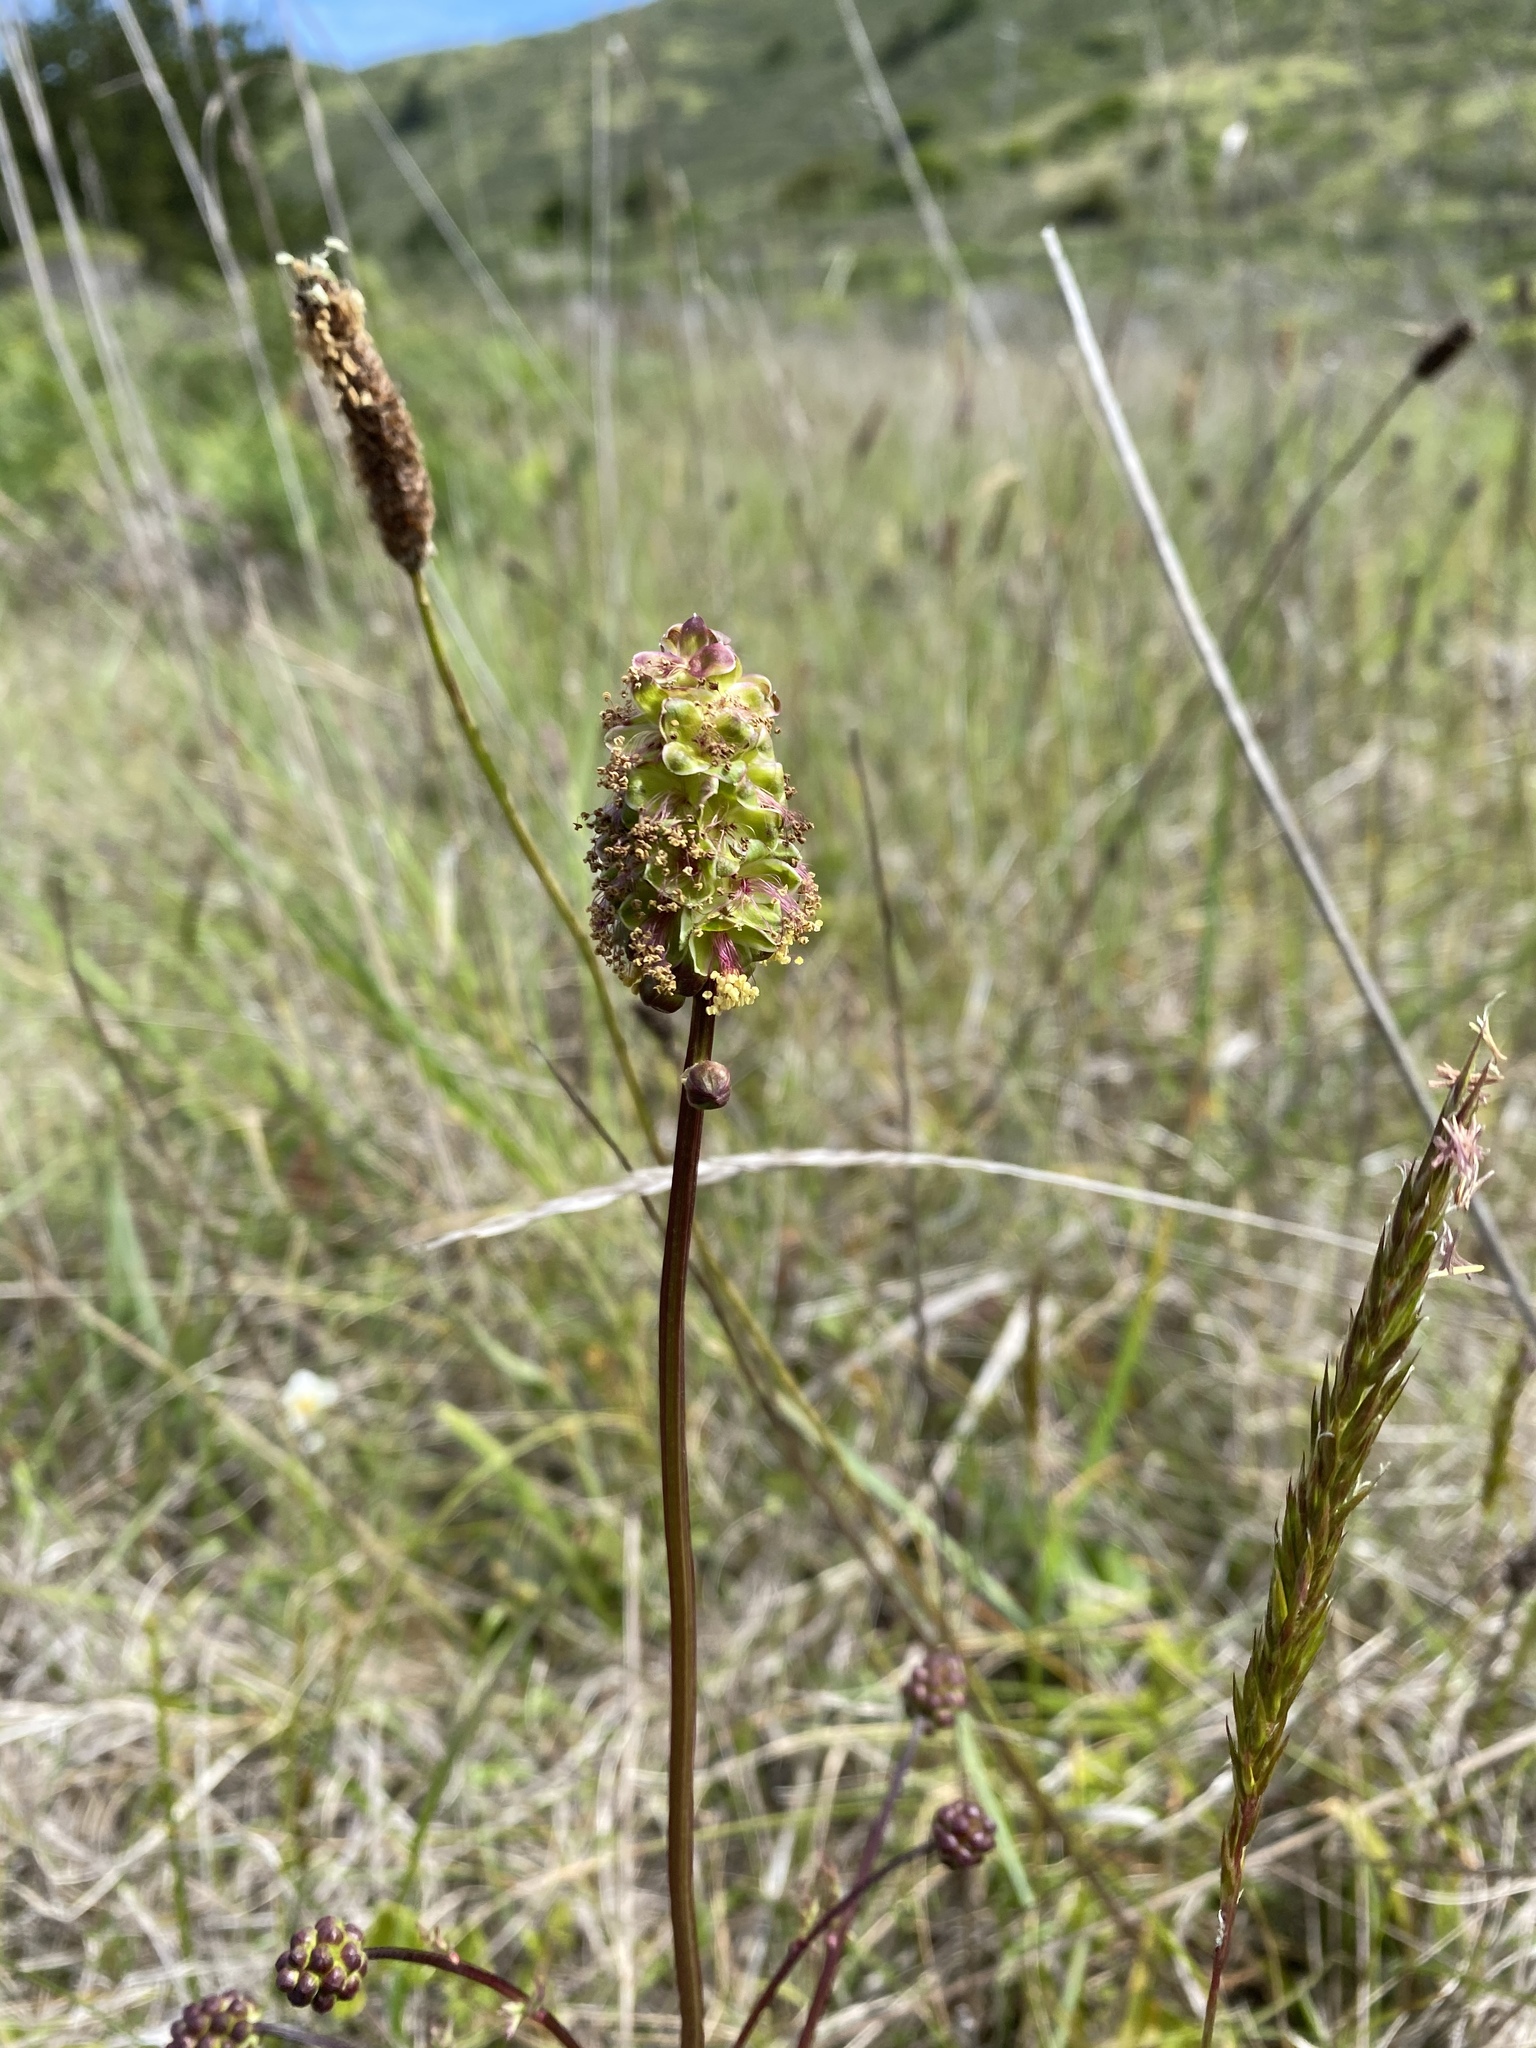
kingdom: Plantae
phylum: Tracheophyta
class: Magnoliopsida
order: Rosales
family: Rosaceae
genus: Poterium
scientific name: Poterium sanguisorba
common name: Salad burnet
